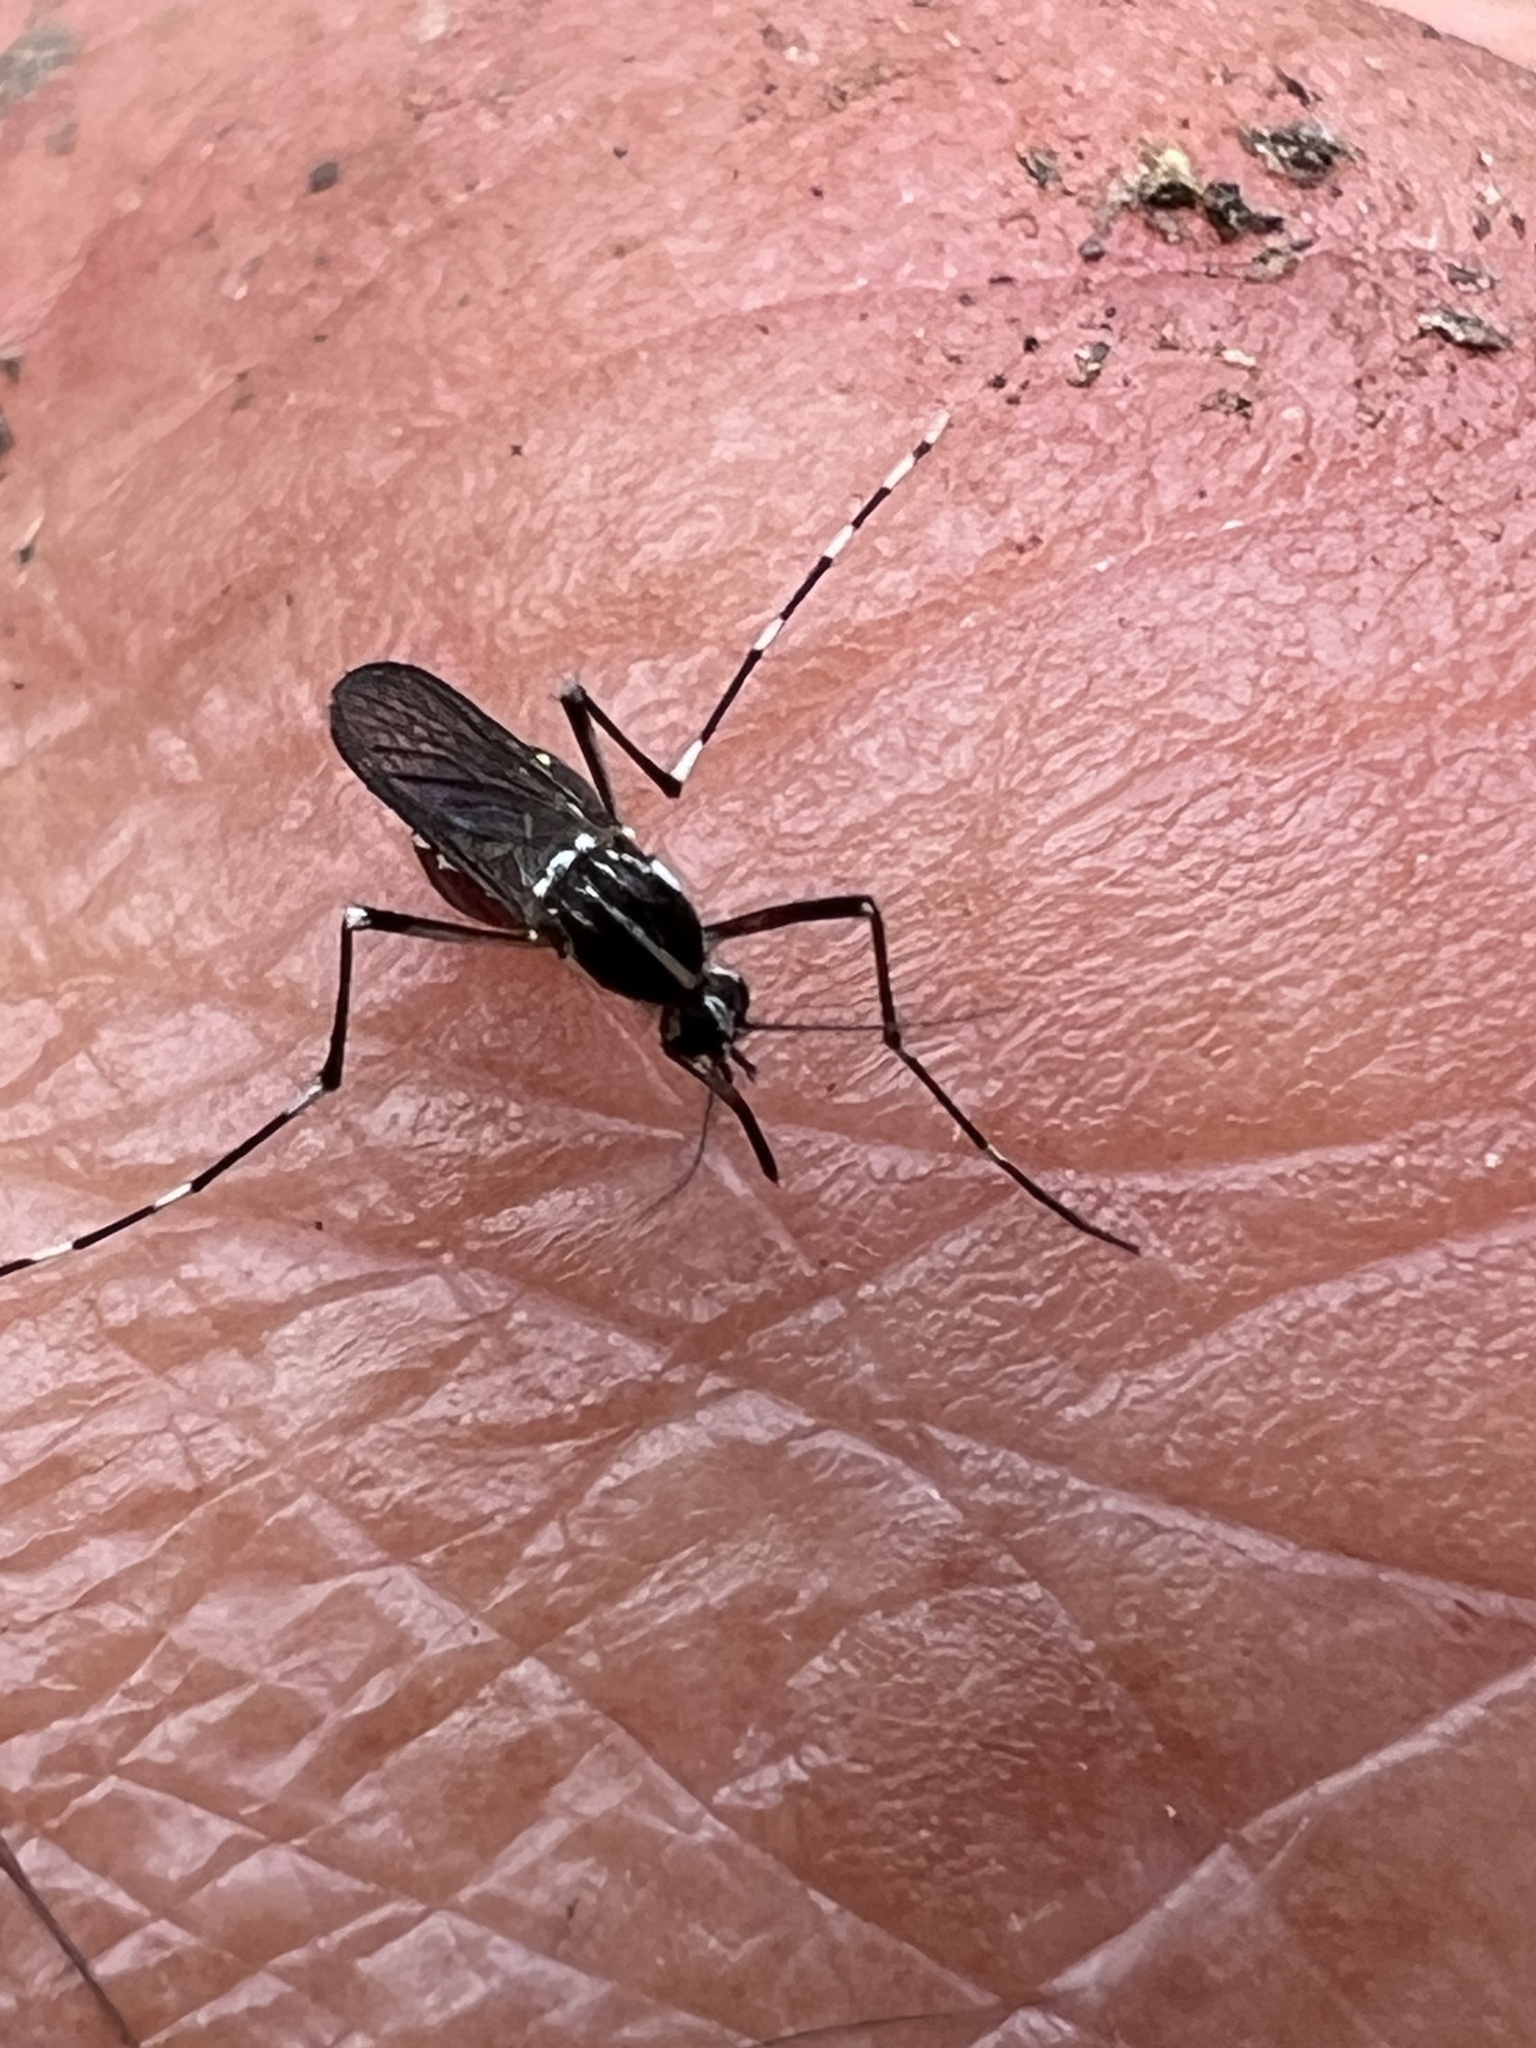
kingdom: Animalia
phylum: Arthropoda
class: Insecta
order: Diptera
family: Culicidae
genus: Aedes
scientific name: Aedes albopictus
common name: Tiger mosquito
